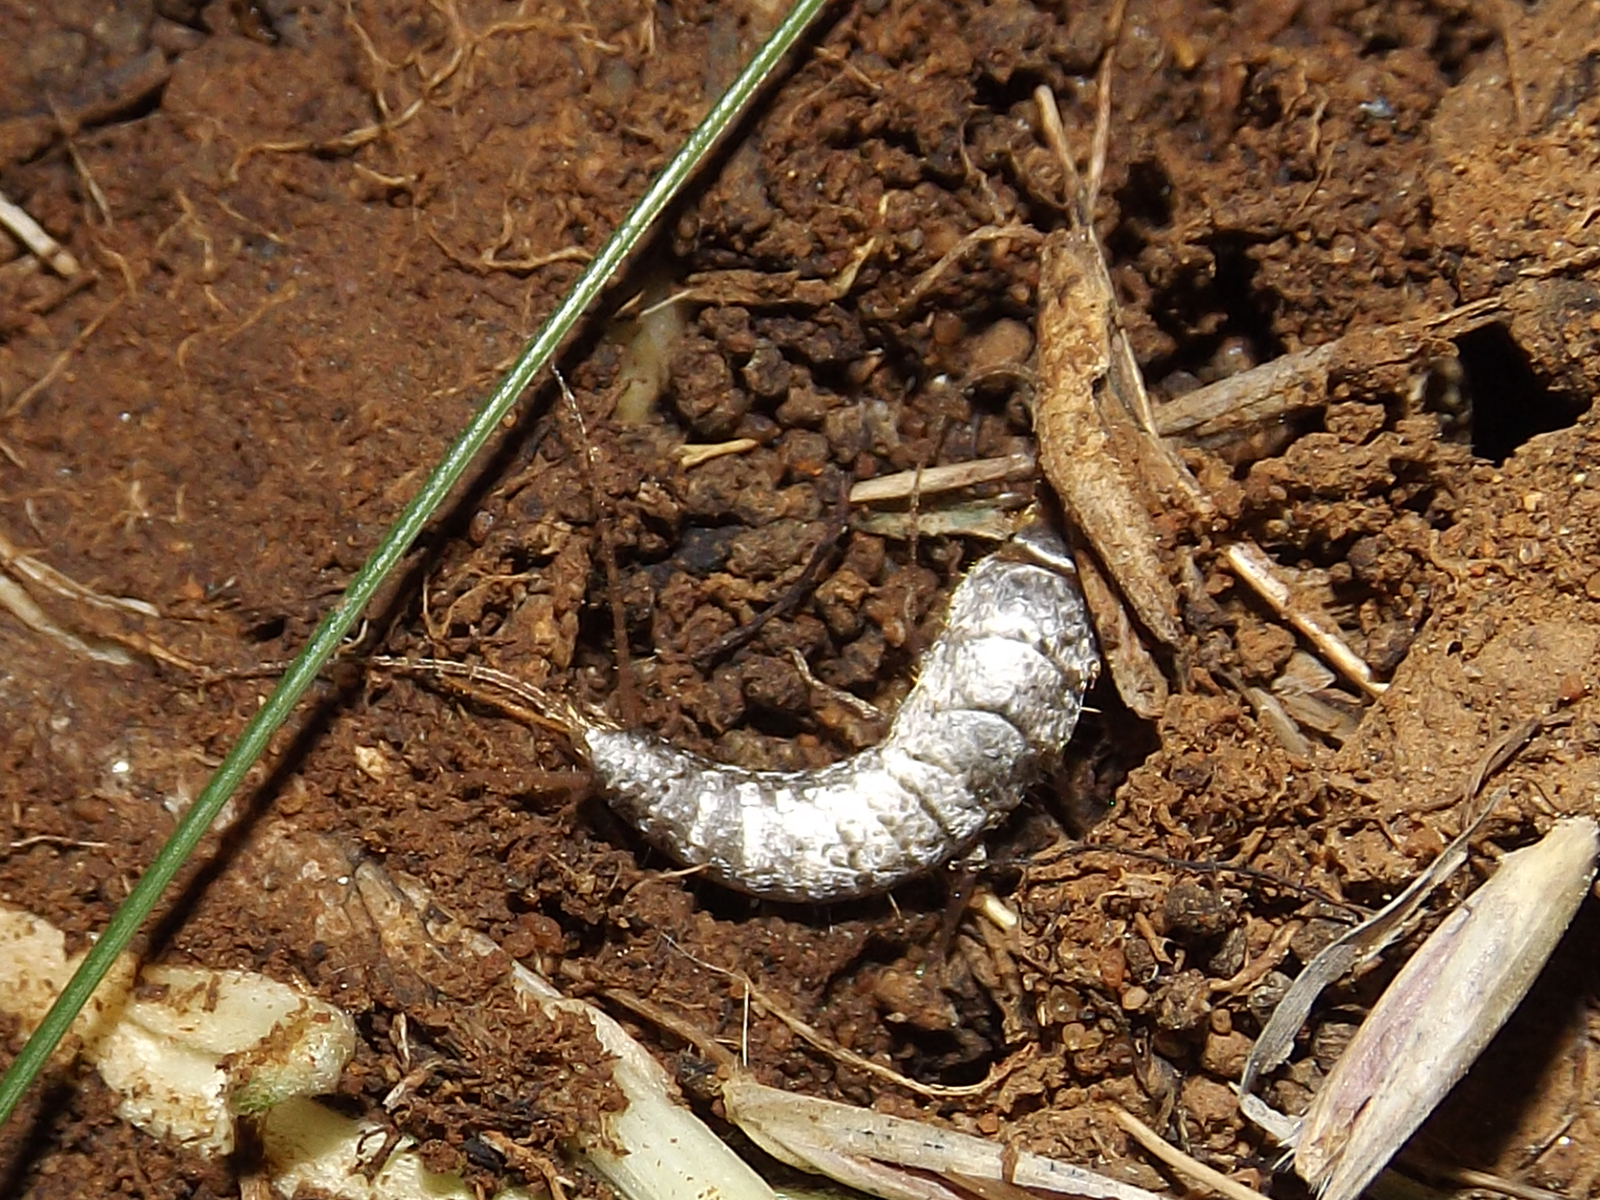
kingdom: Animalia
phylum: Arthropoda
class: Insecta
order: Zygentoma
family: Lepismatidae
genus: Lepisma
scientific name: Lepisma saccharinum
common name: Silverfish
